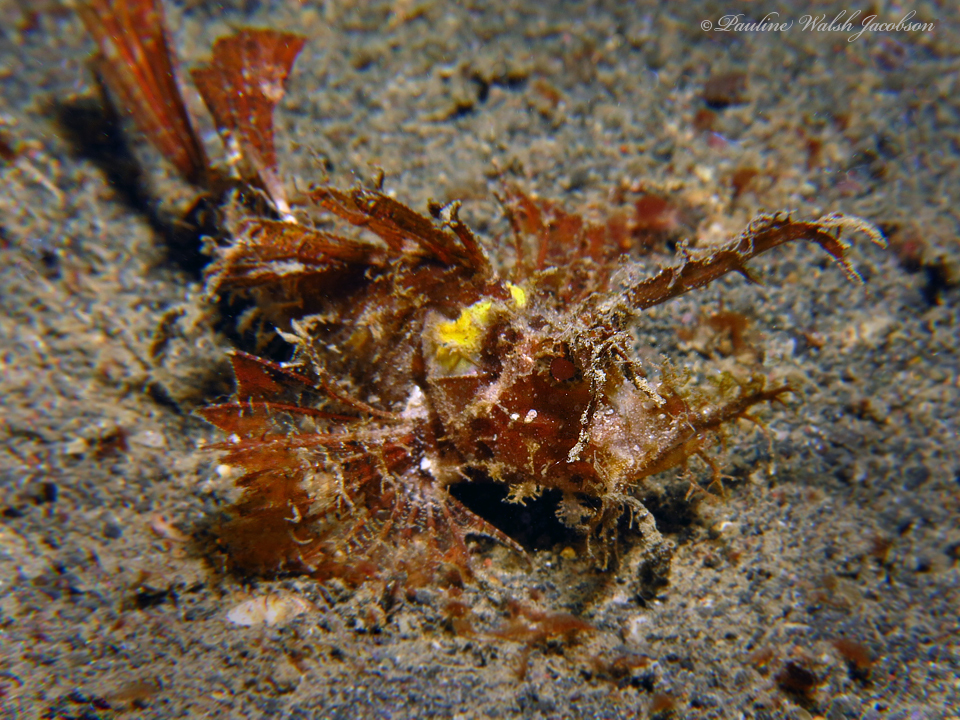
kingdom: Animalia
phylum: Chordata
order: Scorpaeniformes
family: Scorpaenidae
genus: Pteroidichthys
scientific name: Pteroidichthys amboinensis
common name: Ambon scorpionfish
